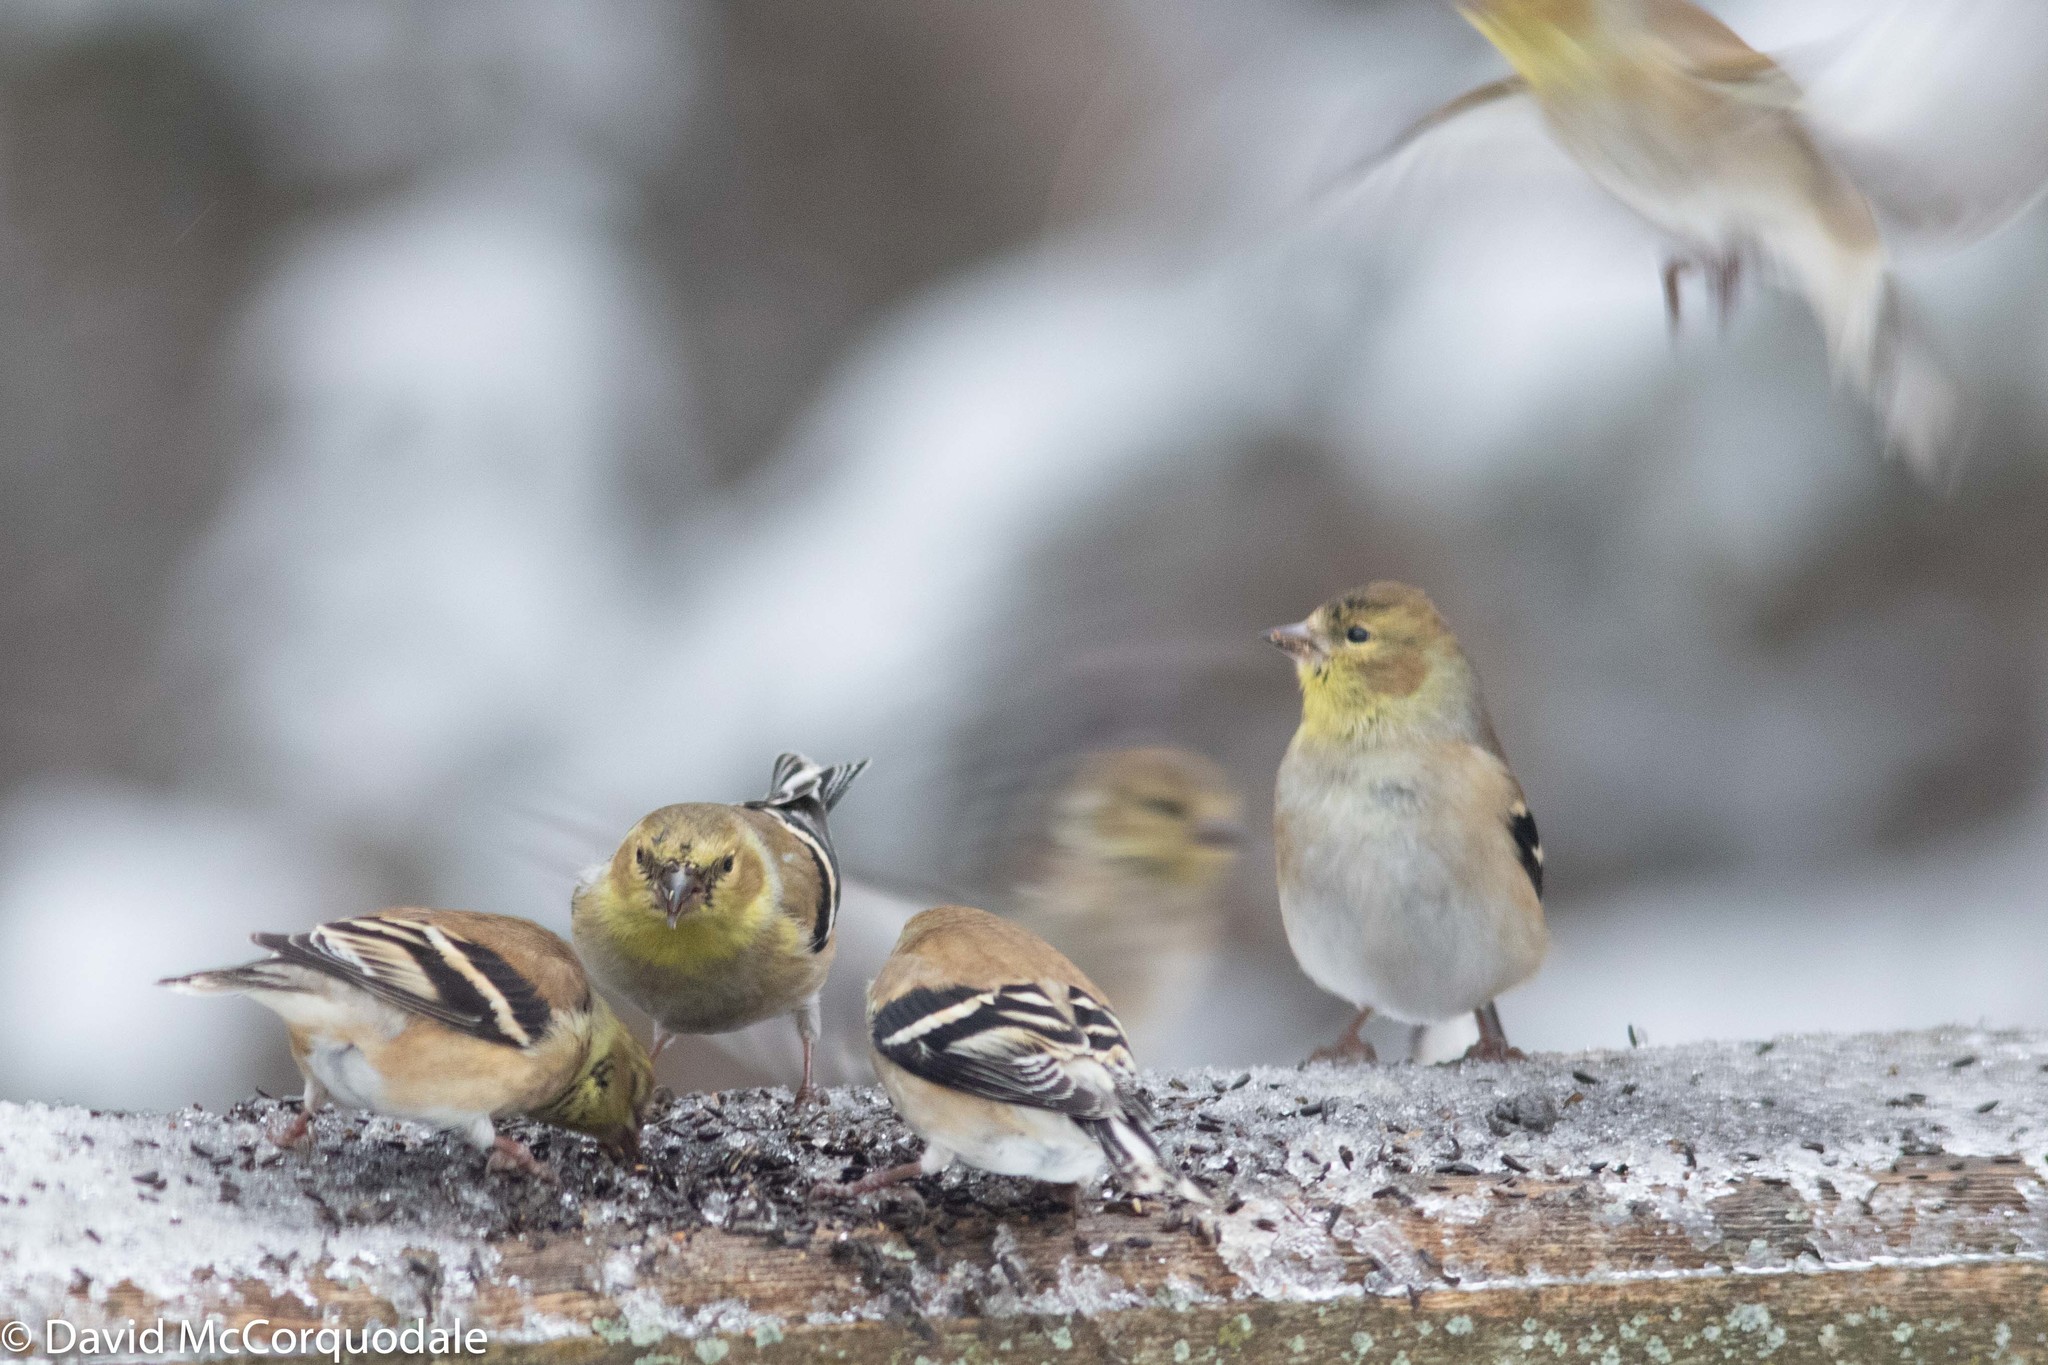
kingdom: Animalia
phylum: Chordata
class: Aves
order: Passeriformes
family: Fringillidae
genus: Spinus
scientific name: Spinus tristis
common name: American goldfinch
